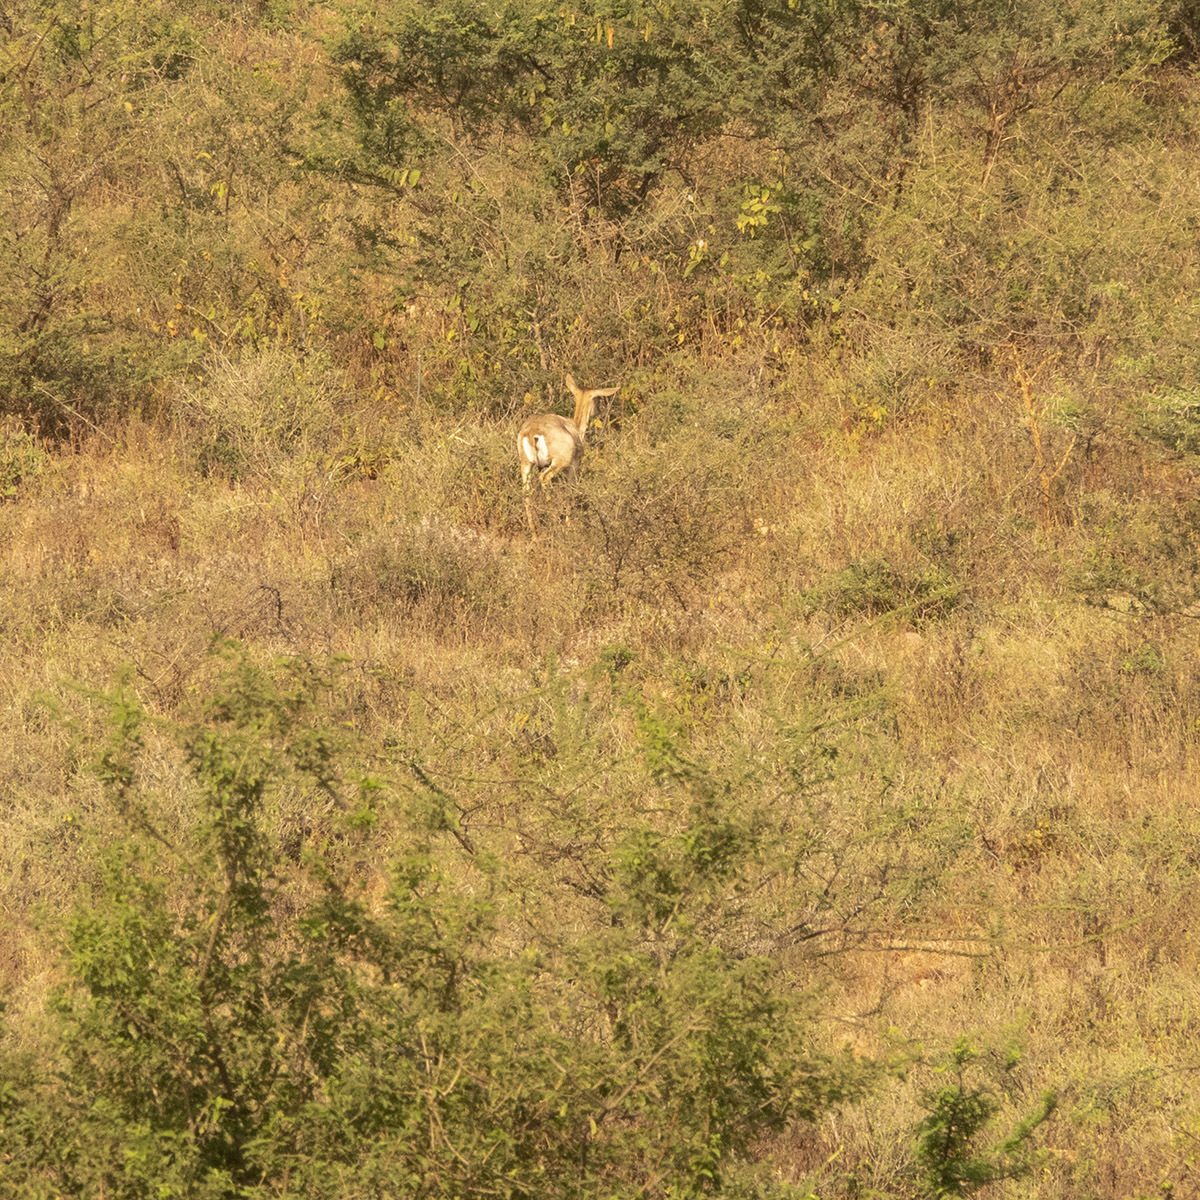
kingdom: Animalia
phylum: Chordata
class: Mammalia
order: Artiodactyla
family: Bovidae
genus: Antilope
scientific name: Antilope cervicapra
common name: Blackbuck
